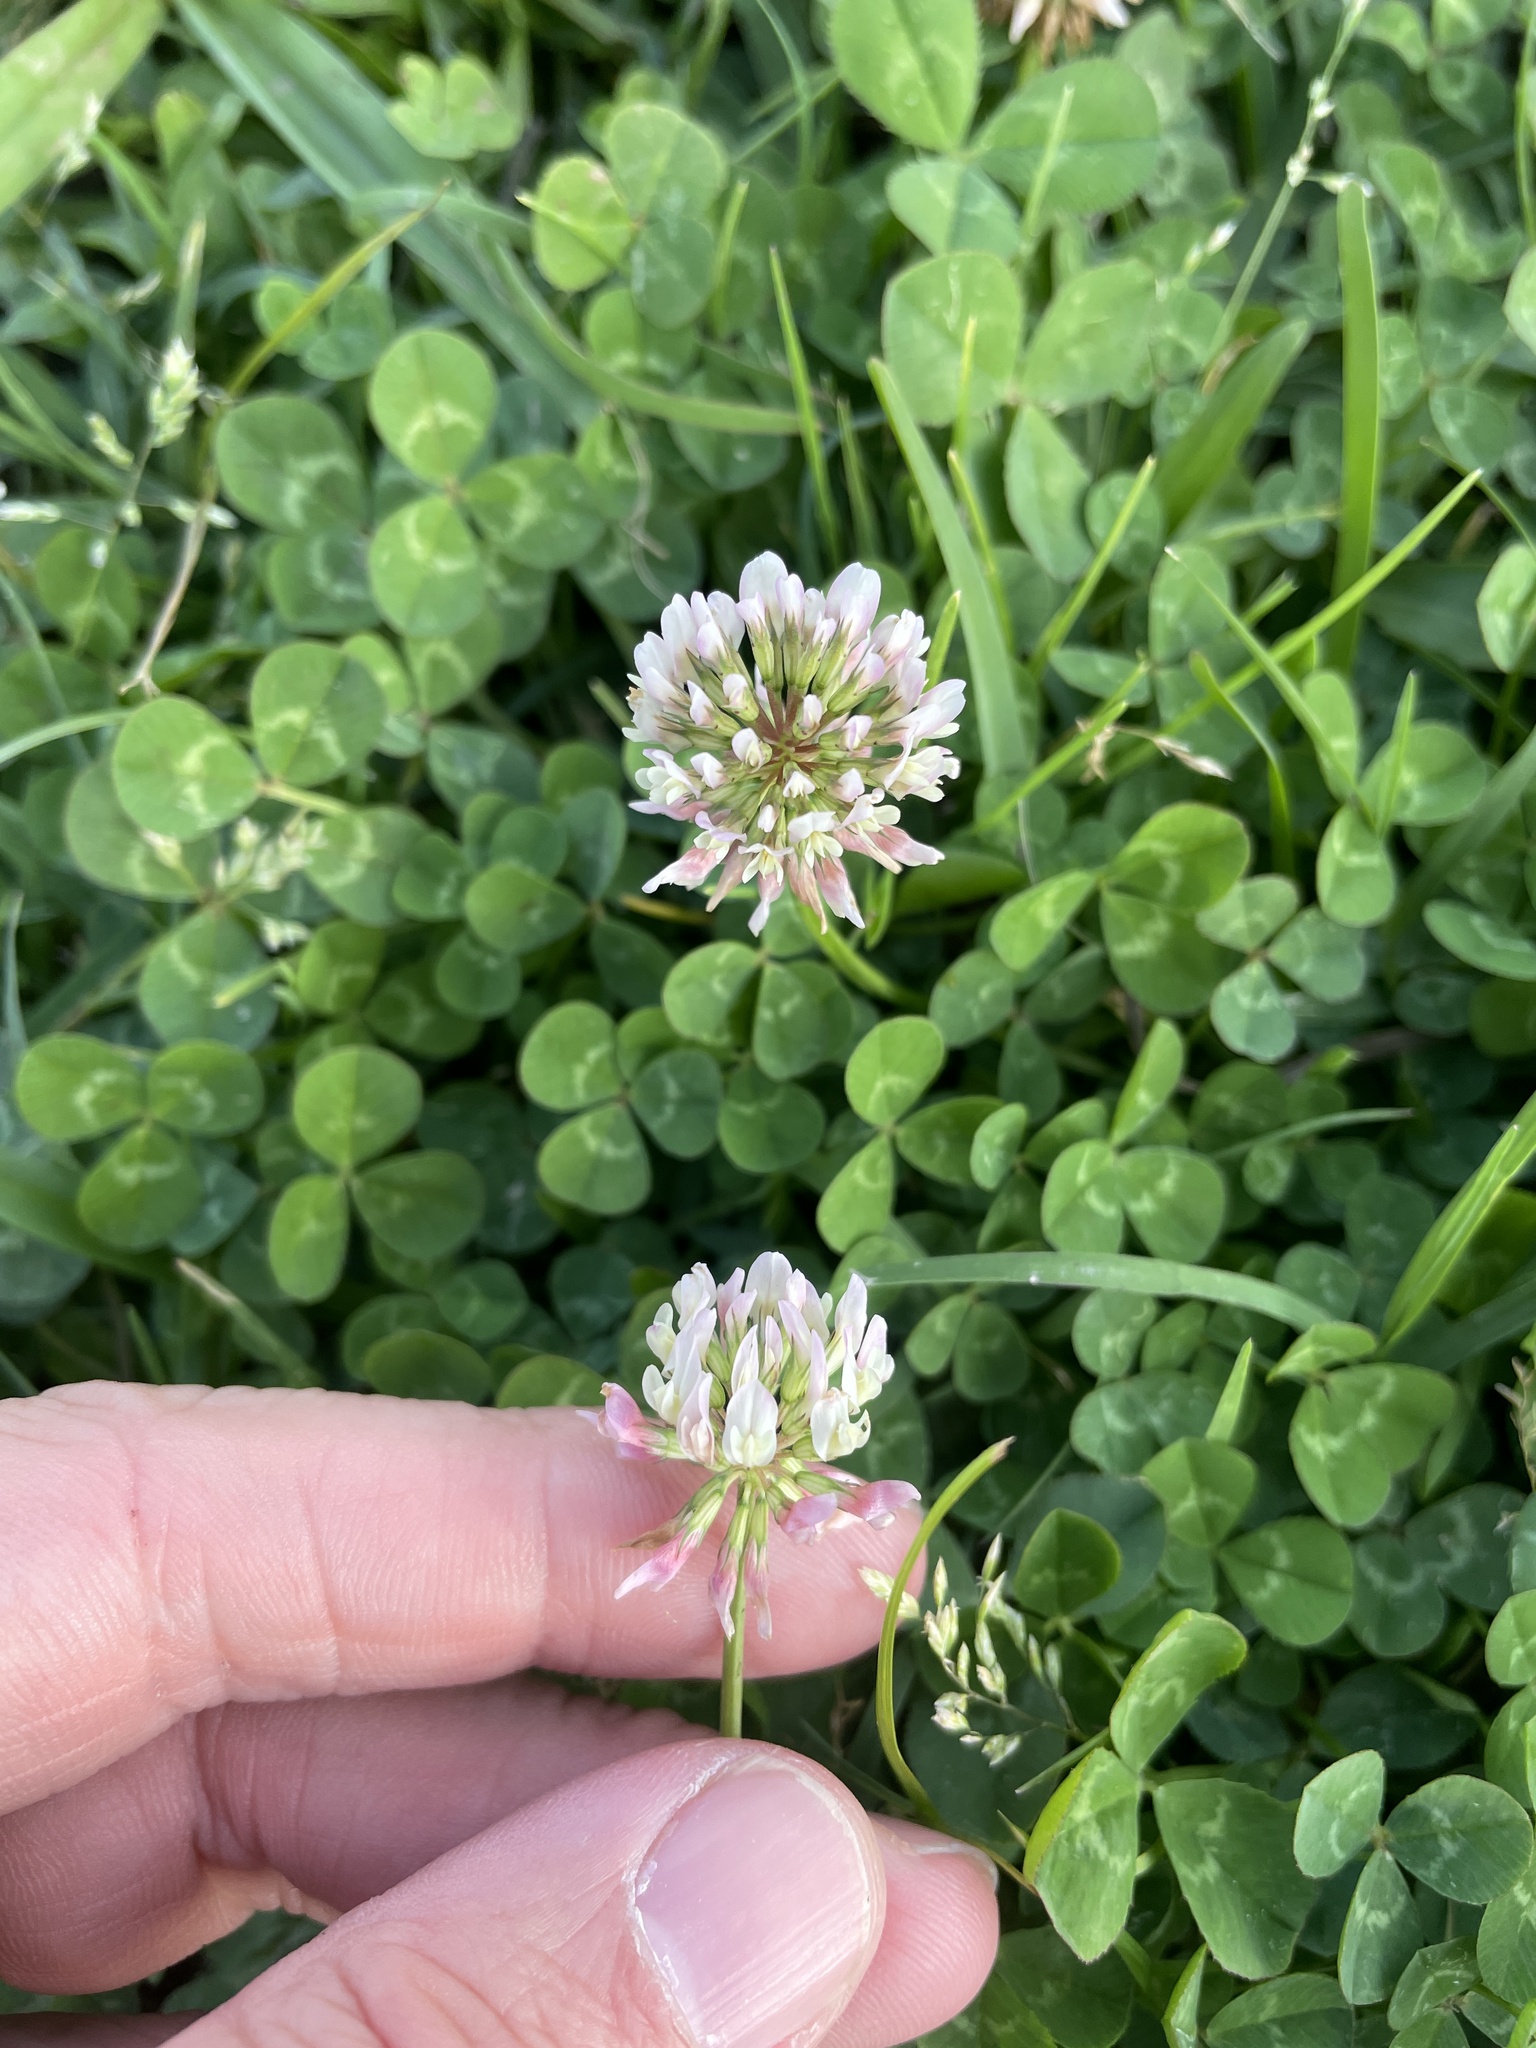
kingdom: Plantae
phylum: Tracheophyta
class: Magnoliopsida
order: Fabales
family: Fabaceae
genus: Trifolium
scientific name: Trifolium repens
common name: White clover
